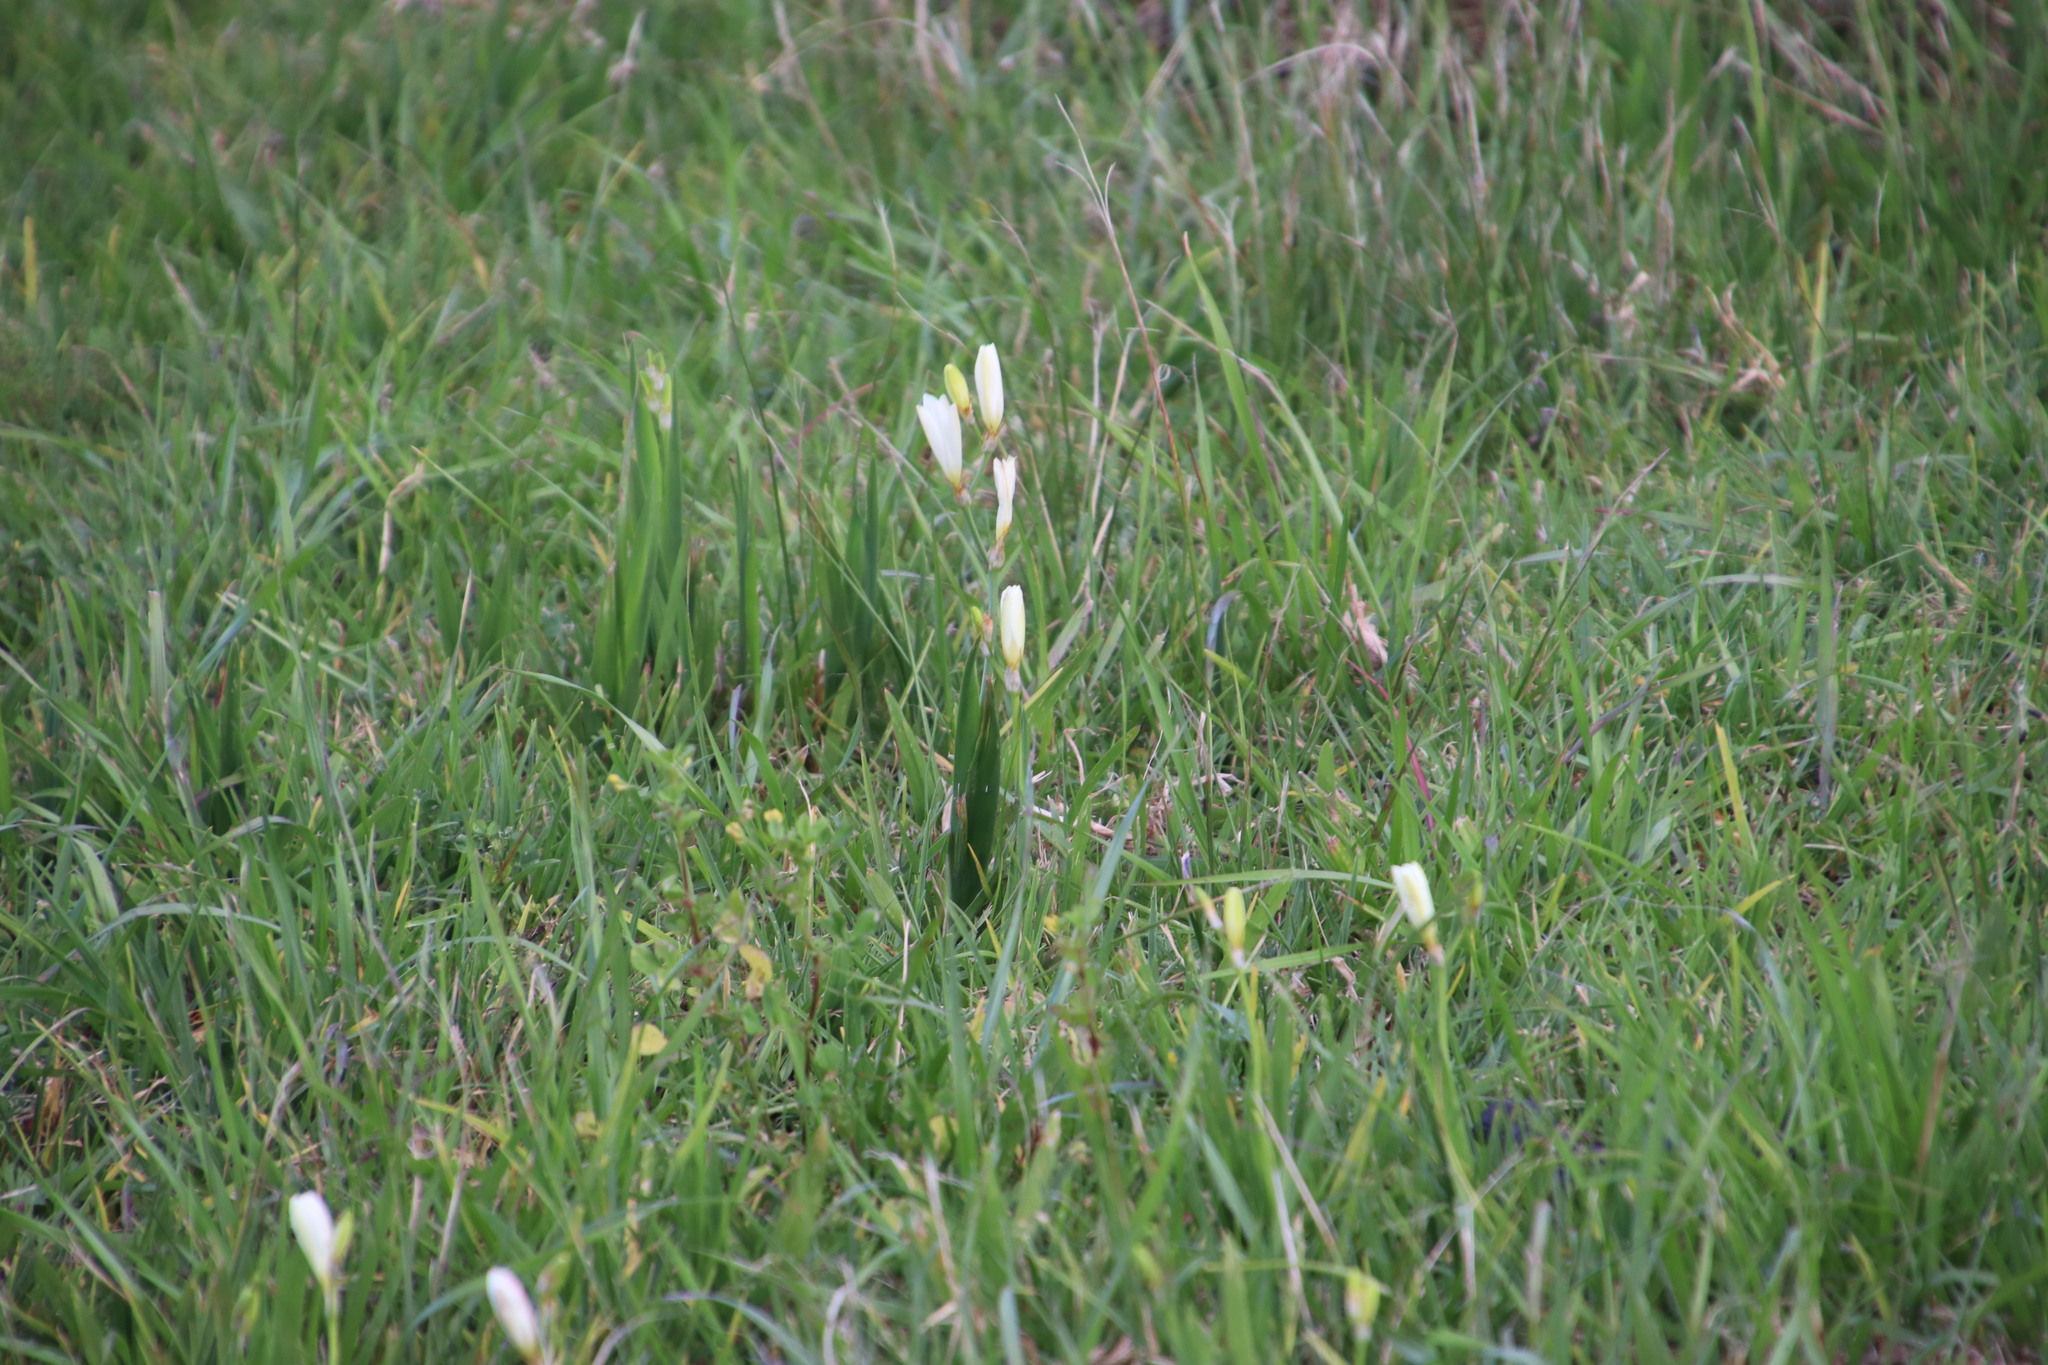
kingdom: Plantae
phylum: Tracheophyta
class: Liliopsida
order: Asparagales
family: Iridaceae
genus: Sparaxis
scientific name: Sparaxis bulbifera
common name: Harlequin-flower
